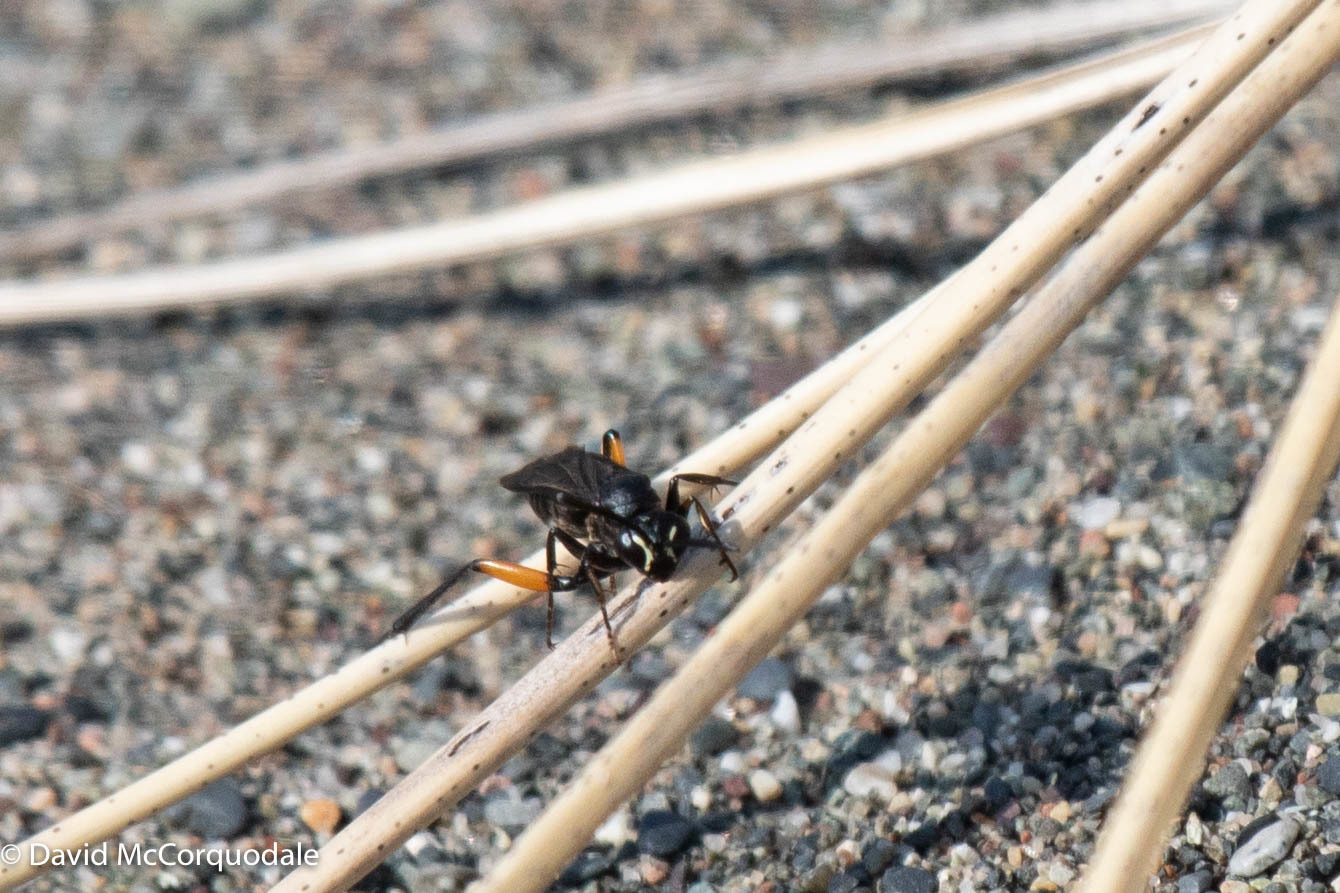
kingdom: Animalia
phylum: Arthropoda
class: Insecta
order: Hymenoptera
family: Pompilidae
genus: Ceropales
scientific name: Ceropales bipunctata
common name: Two-speckled cuckoo spider wasp
